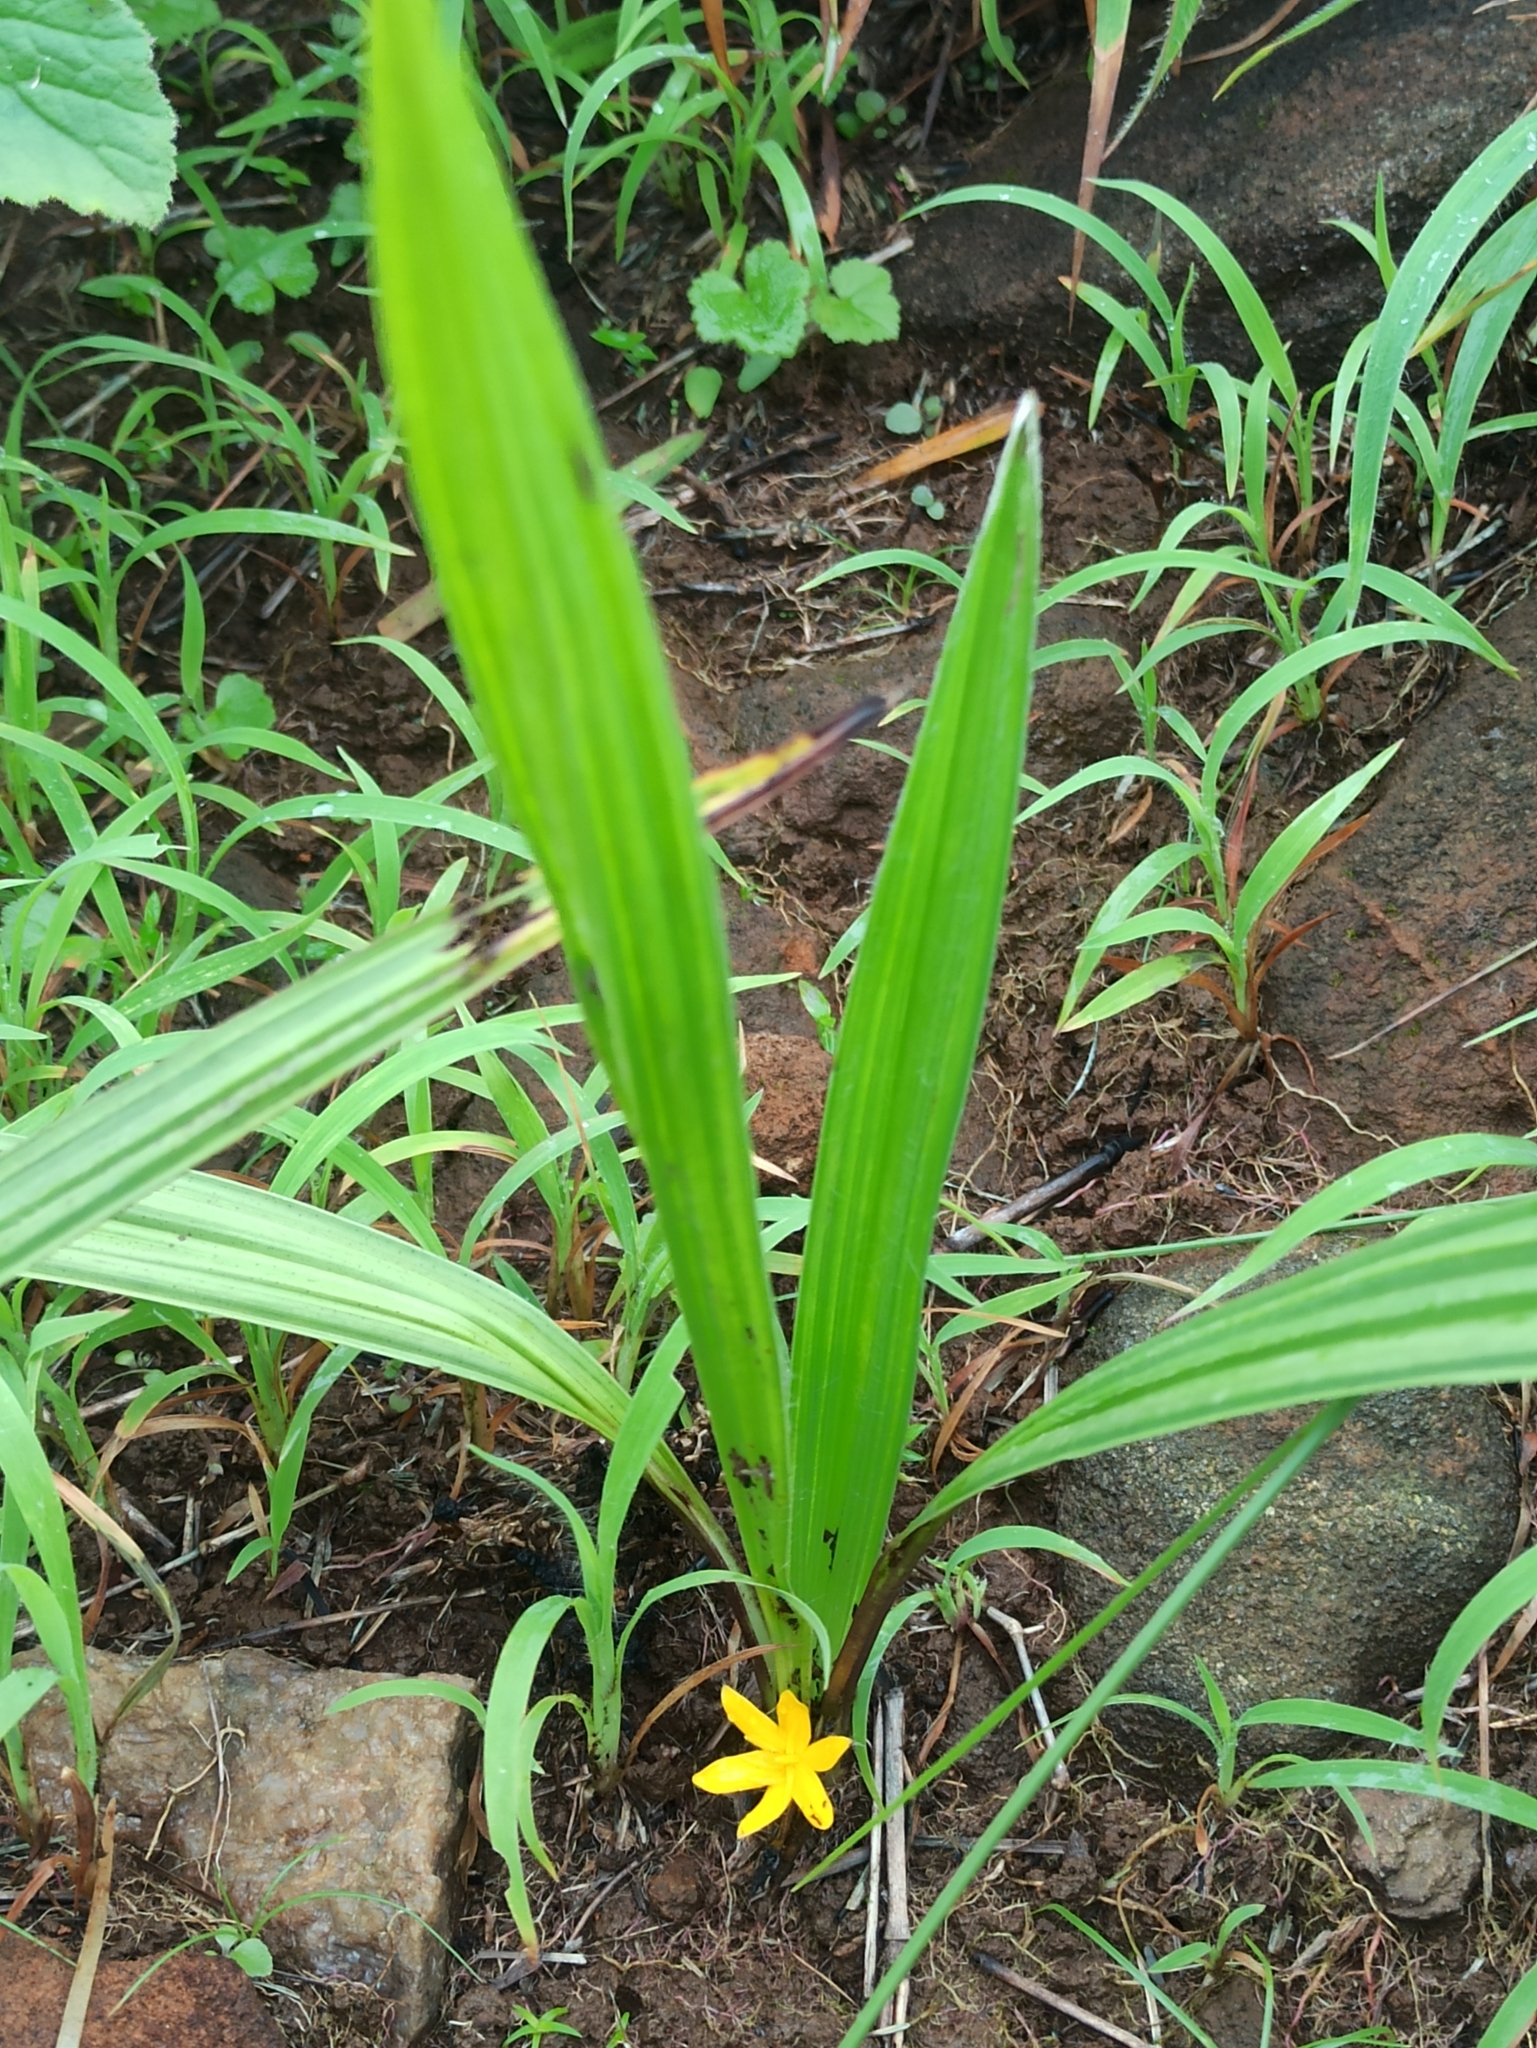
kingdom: Plantae
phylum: Tracheophyta
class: Liliopsida
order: Asparagales
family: Hypoxidaceae
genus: Curculigo
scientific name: Curculigo orchioides
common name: Golden eye-grass
